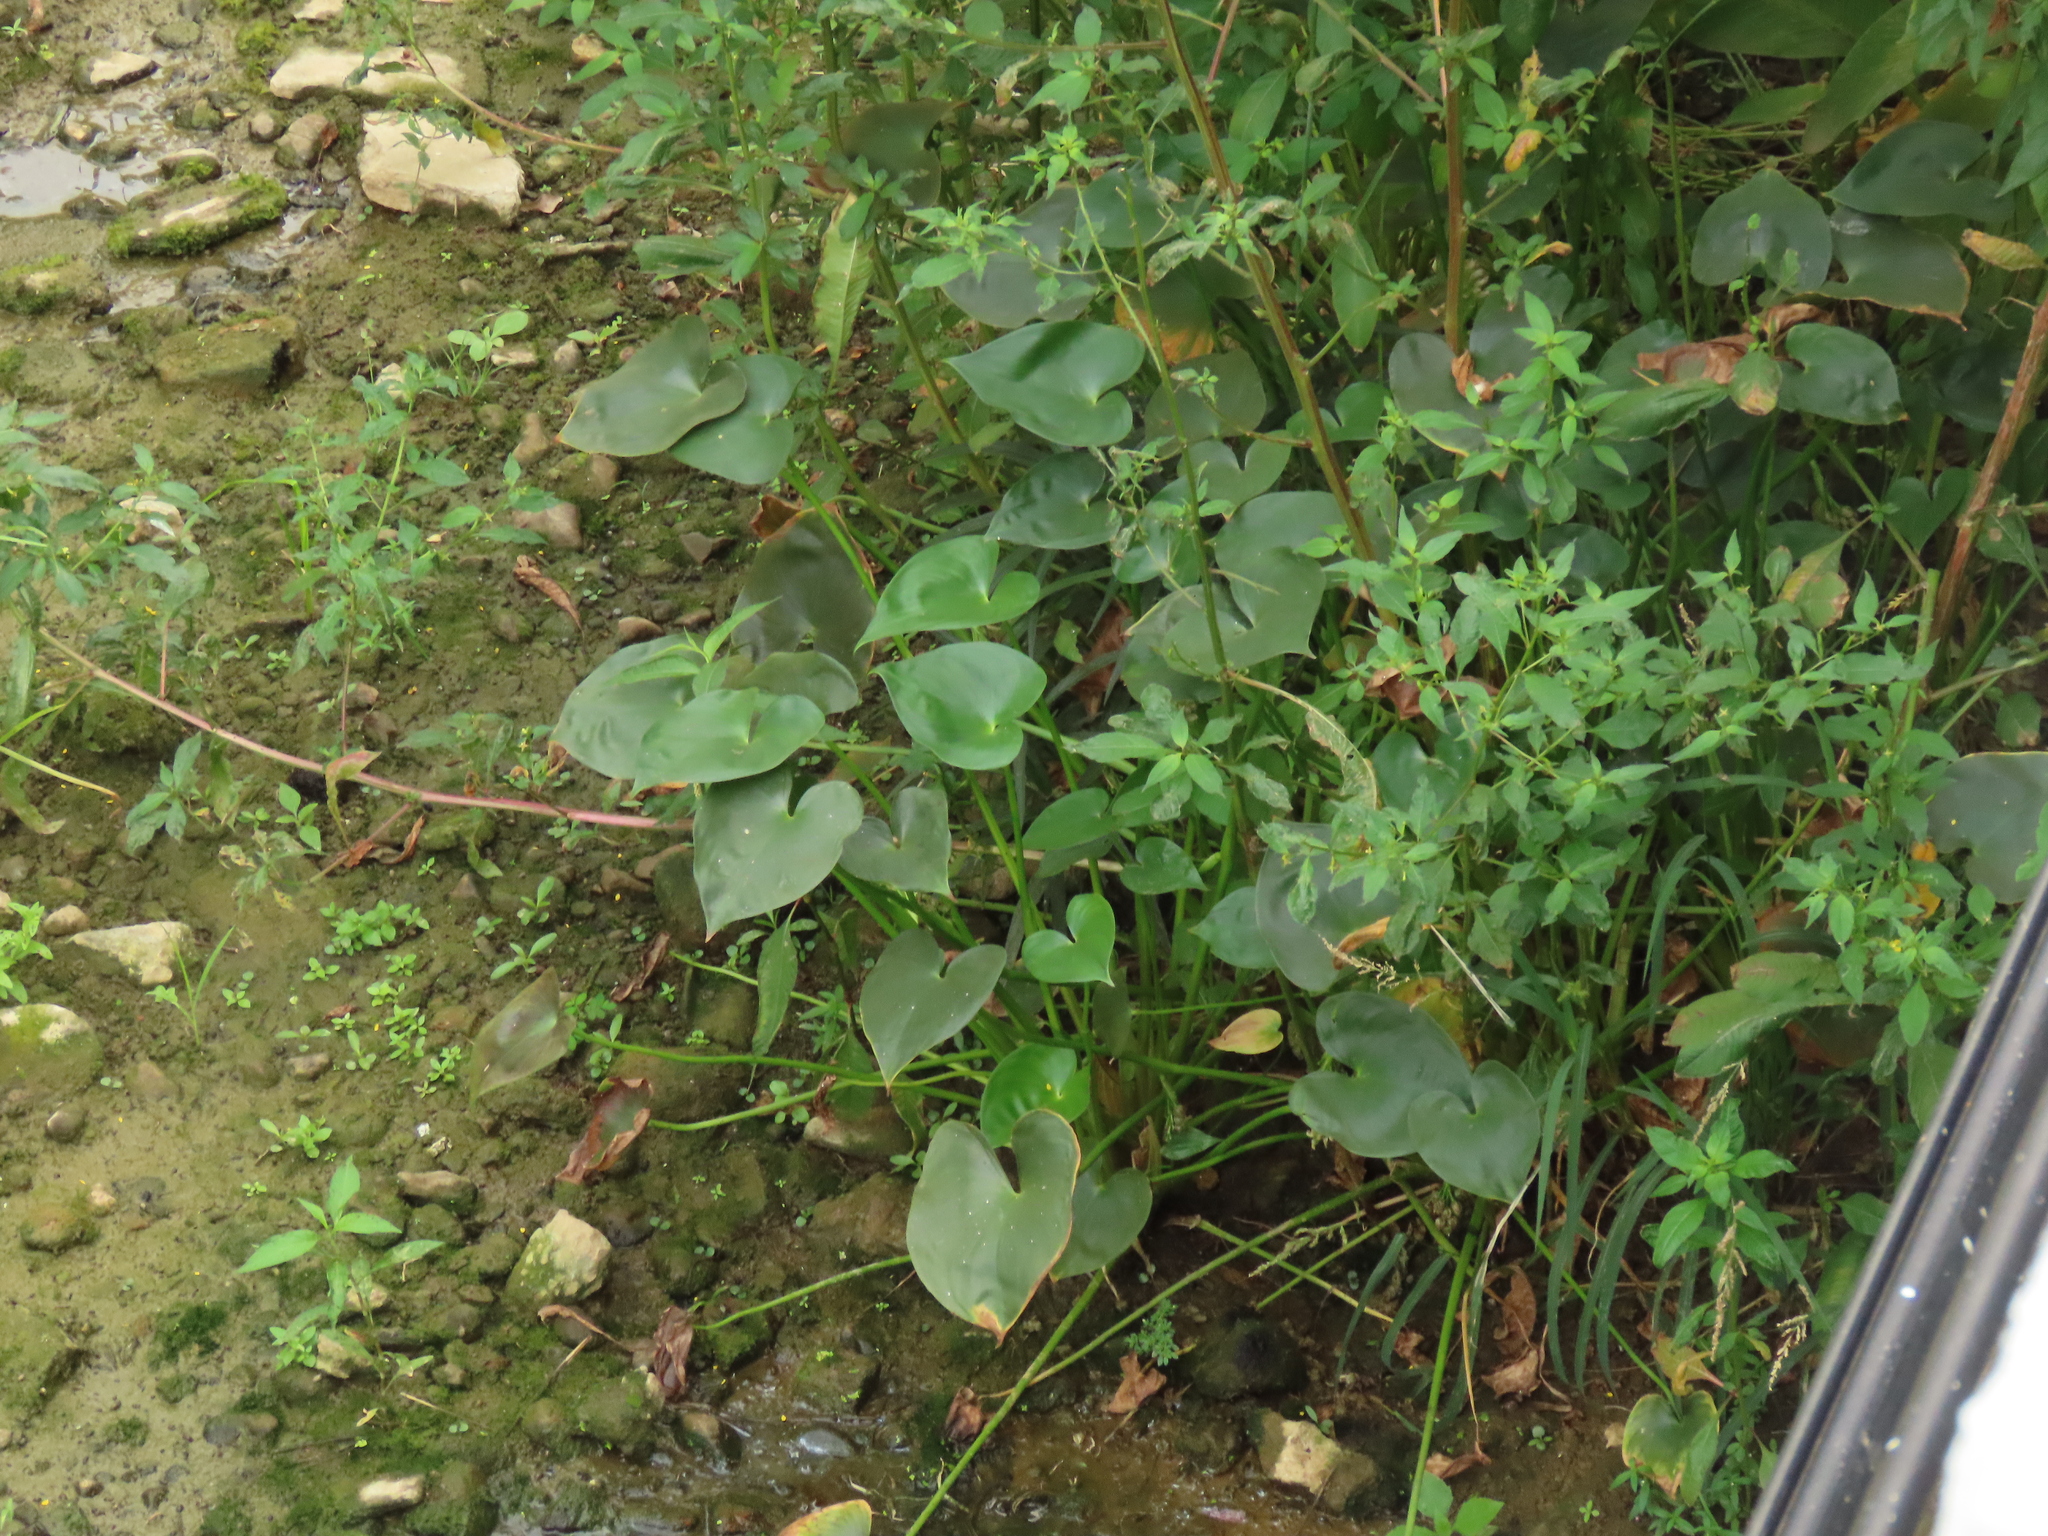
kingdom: Plantae
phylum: Tracheophyta
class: Liliopsida
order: Commelinales
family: Pontederiaceae
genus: Pontederia
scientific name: Pontederia vaginalis
